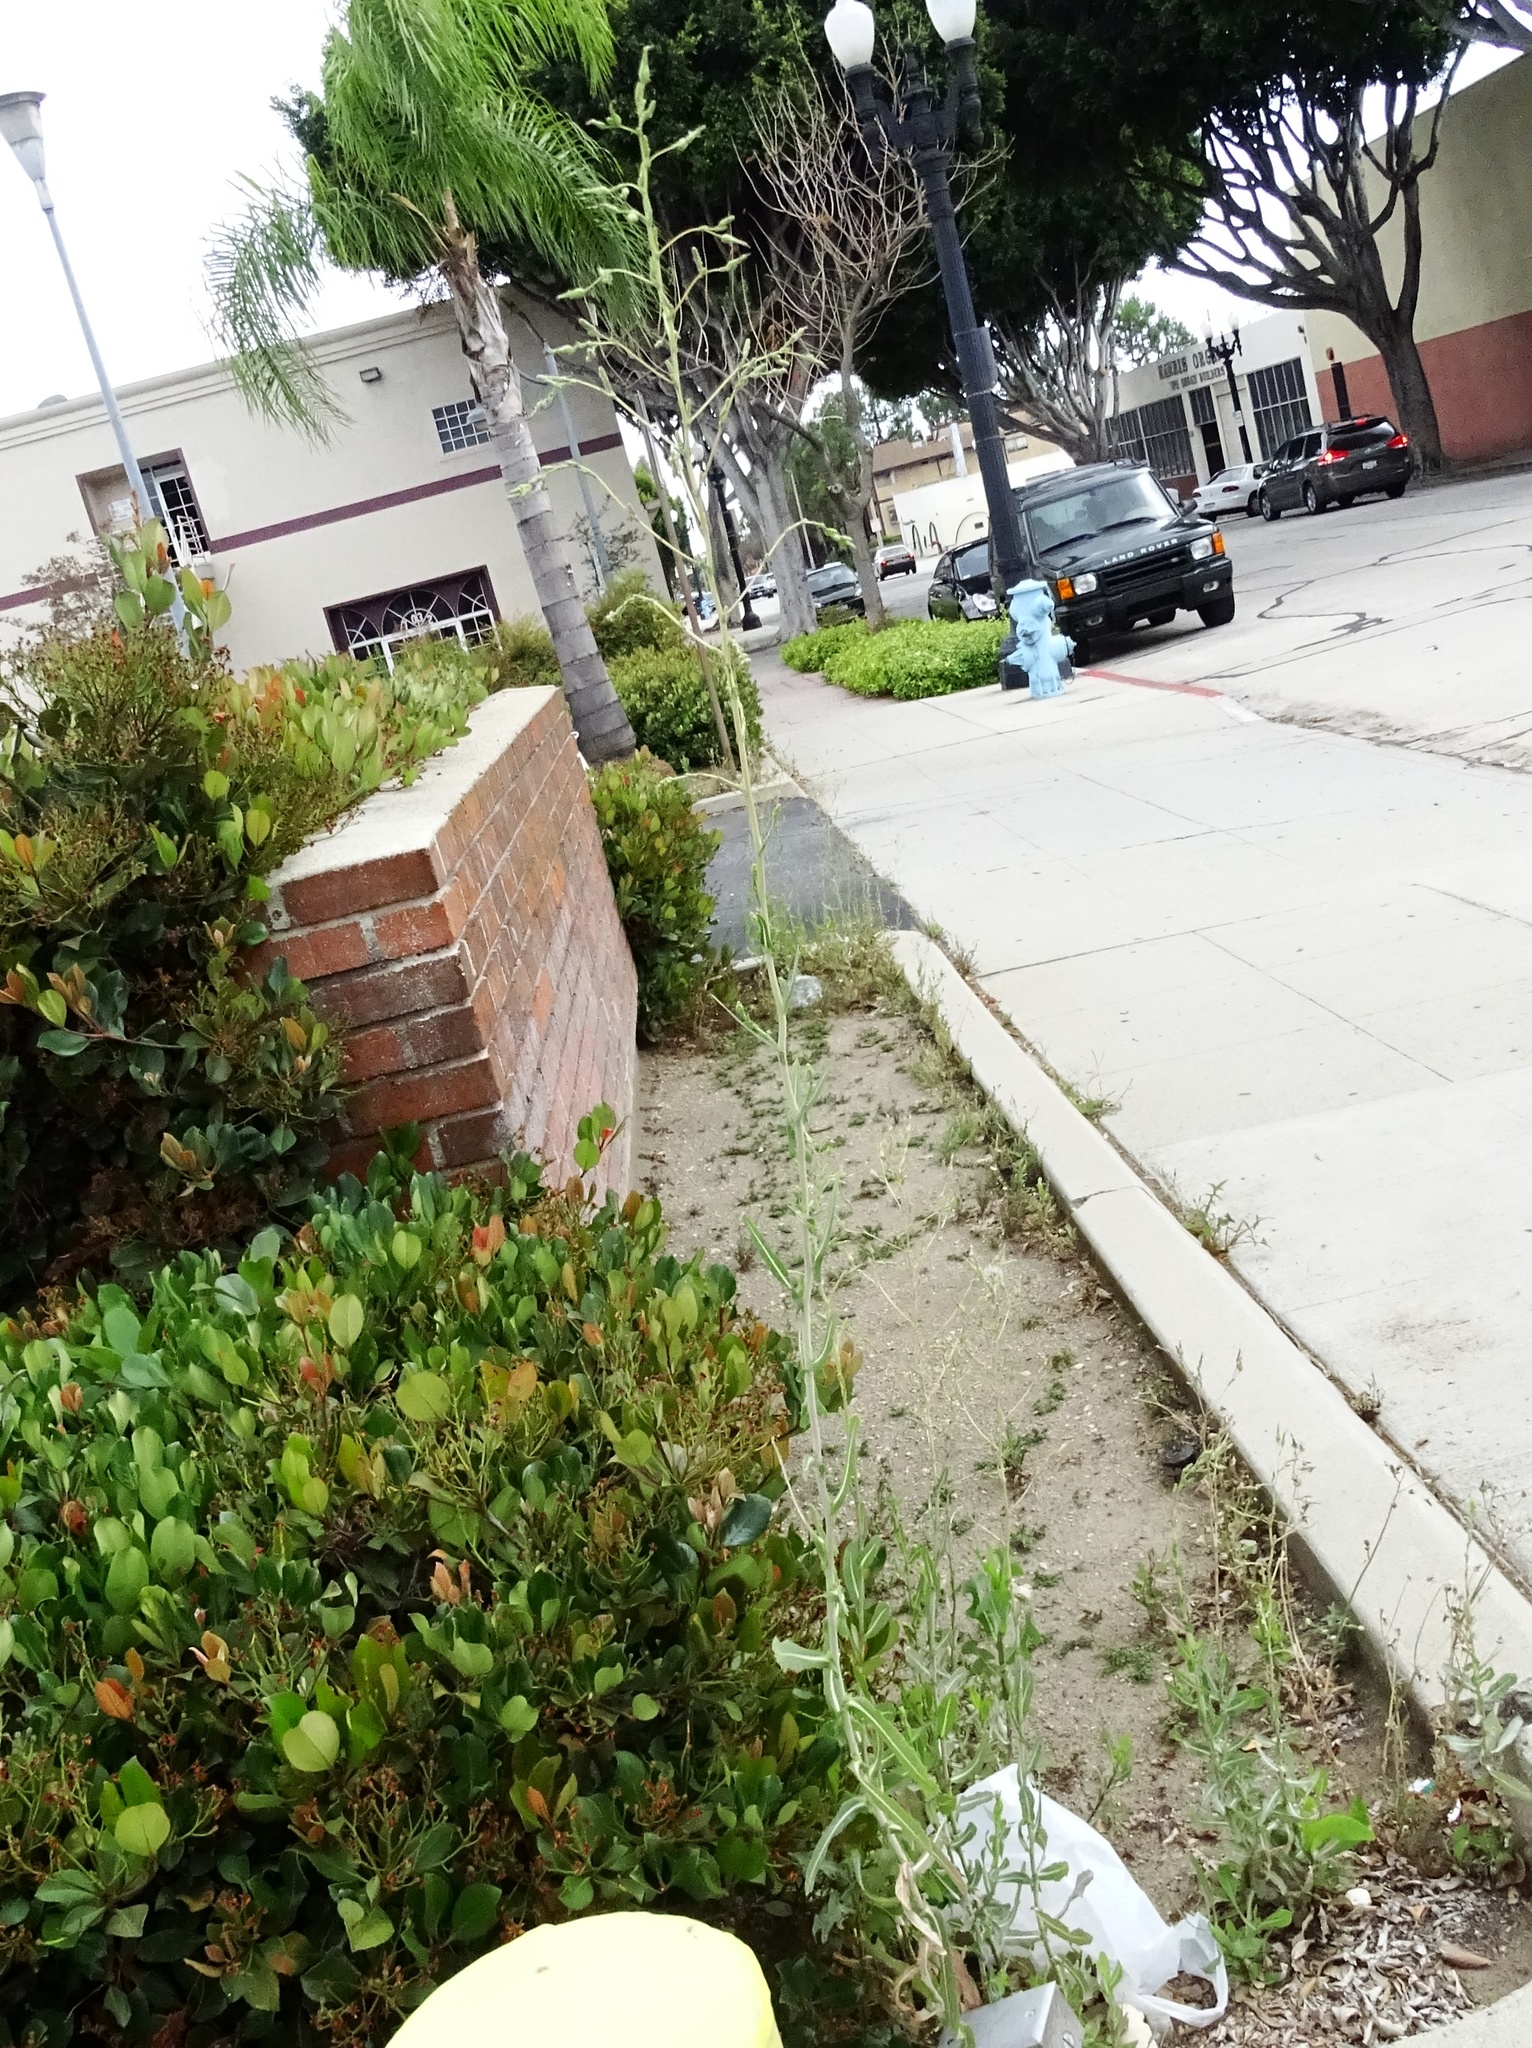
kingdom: Plantae
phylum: Tracheophyta
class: Magnoliopsida
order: Asterales
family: Asteraceae
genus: Lactuca
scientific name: Lactuca serriola
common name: Prickly lettuce
